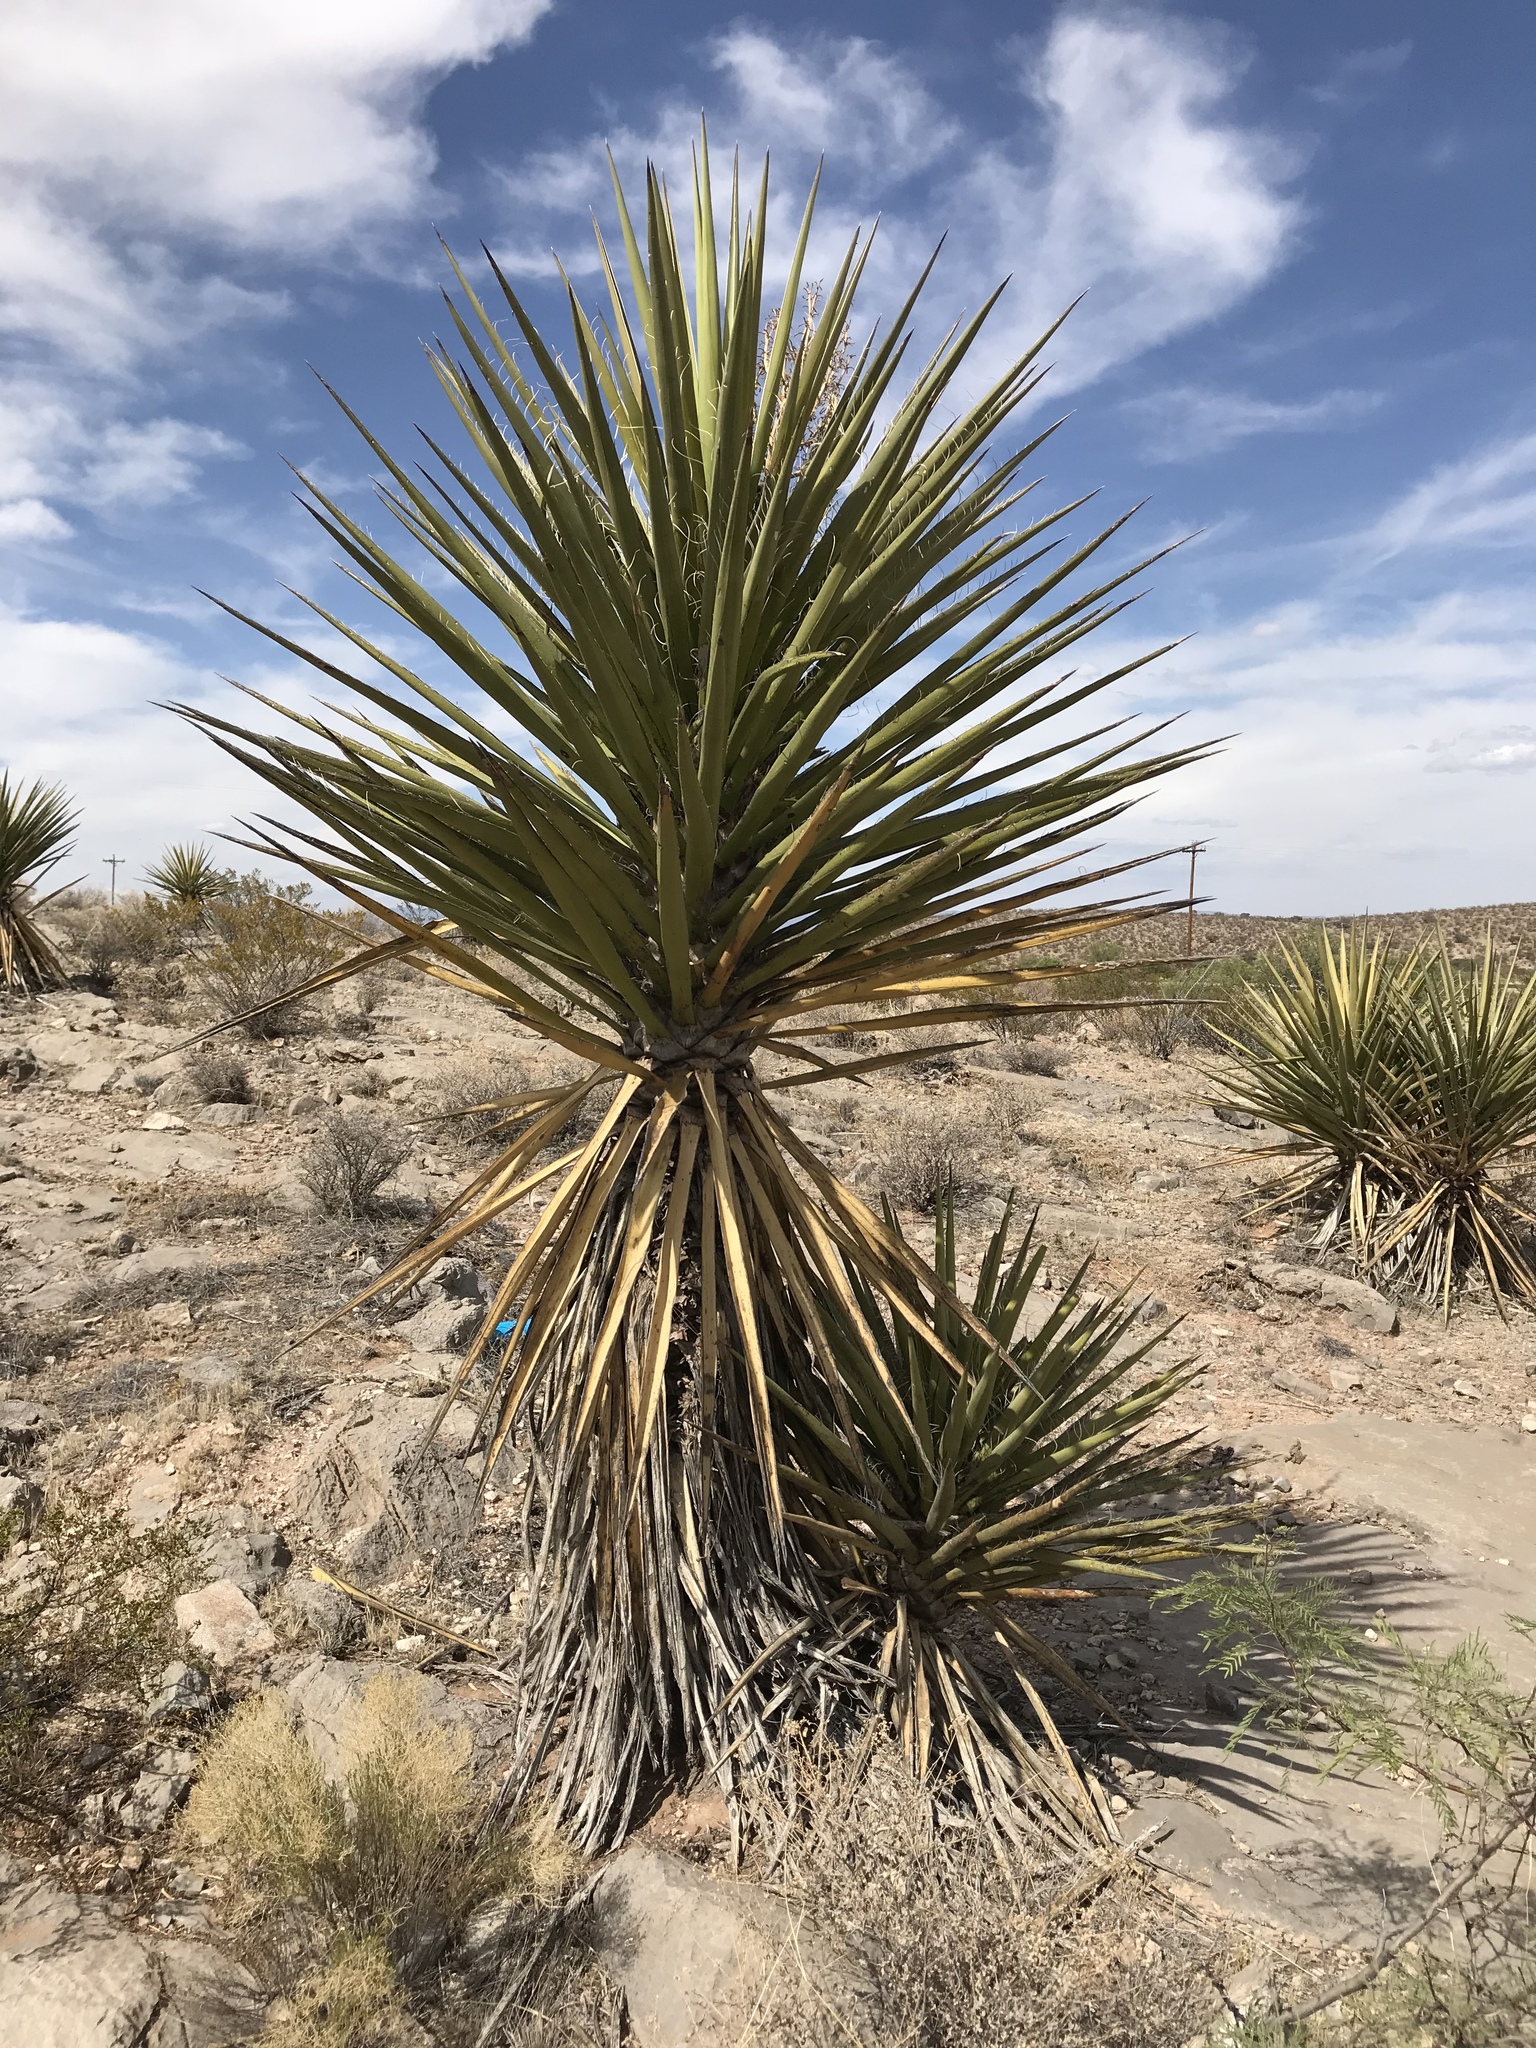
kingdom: Plantae
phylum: Tracheophyta
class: Liliopsida
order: Asparagales
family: Asparagaceae
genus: Yucca
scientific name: Yucca treculiana
